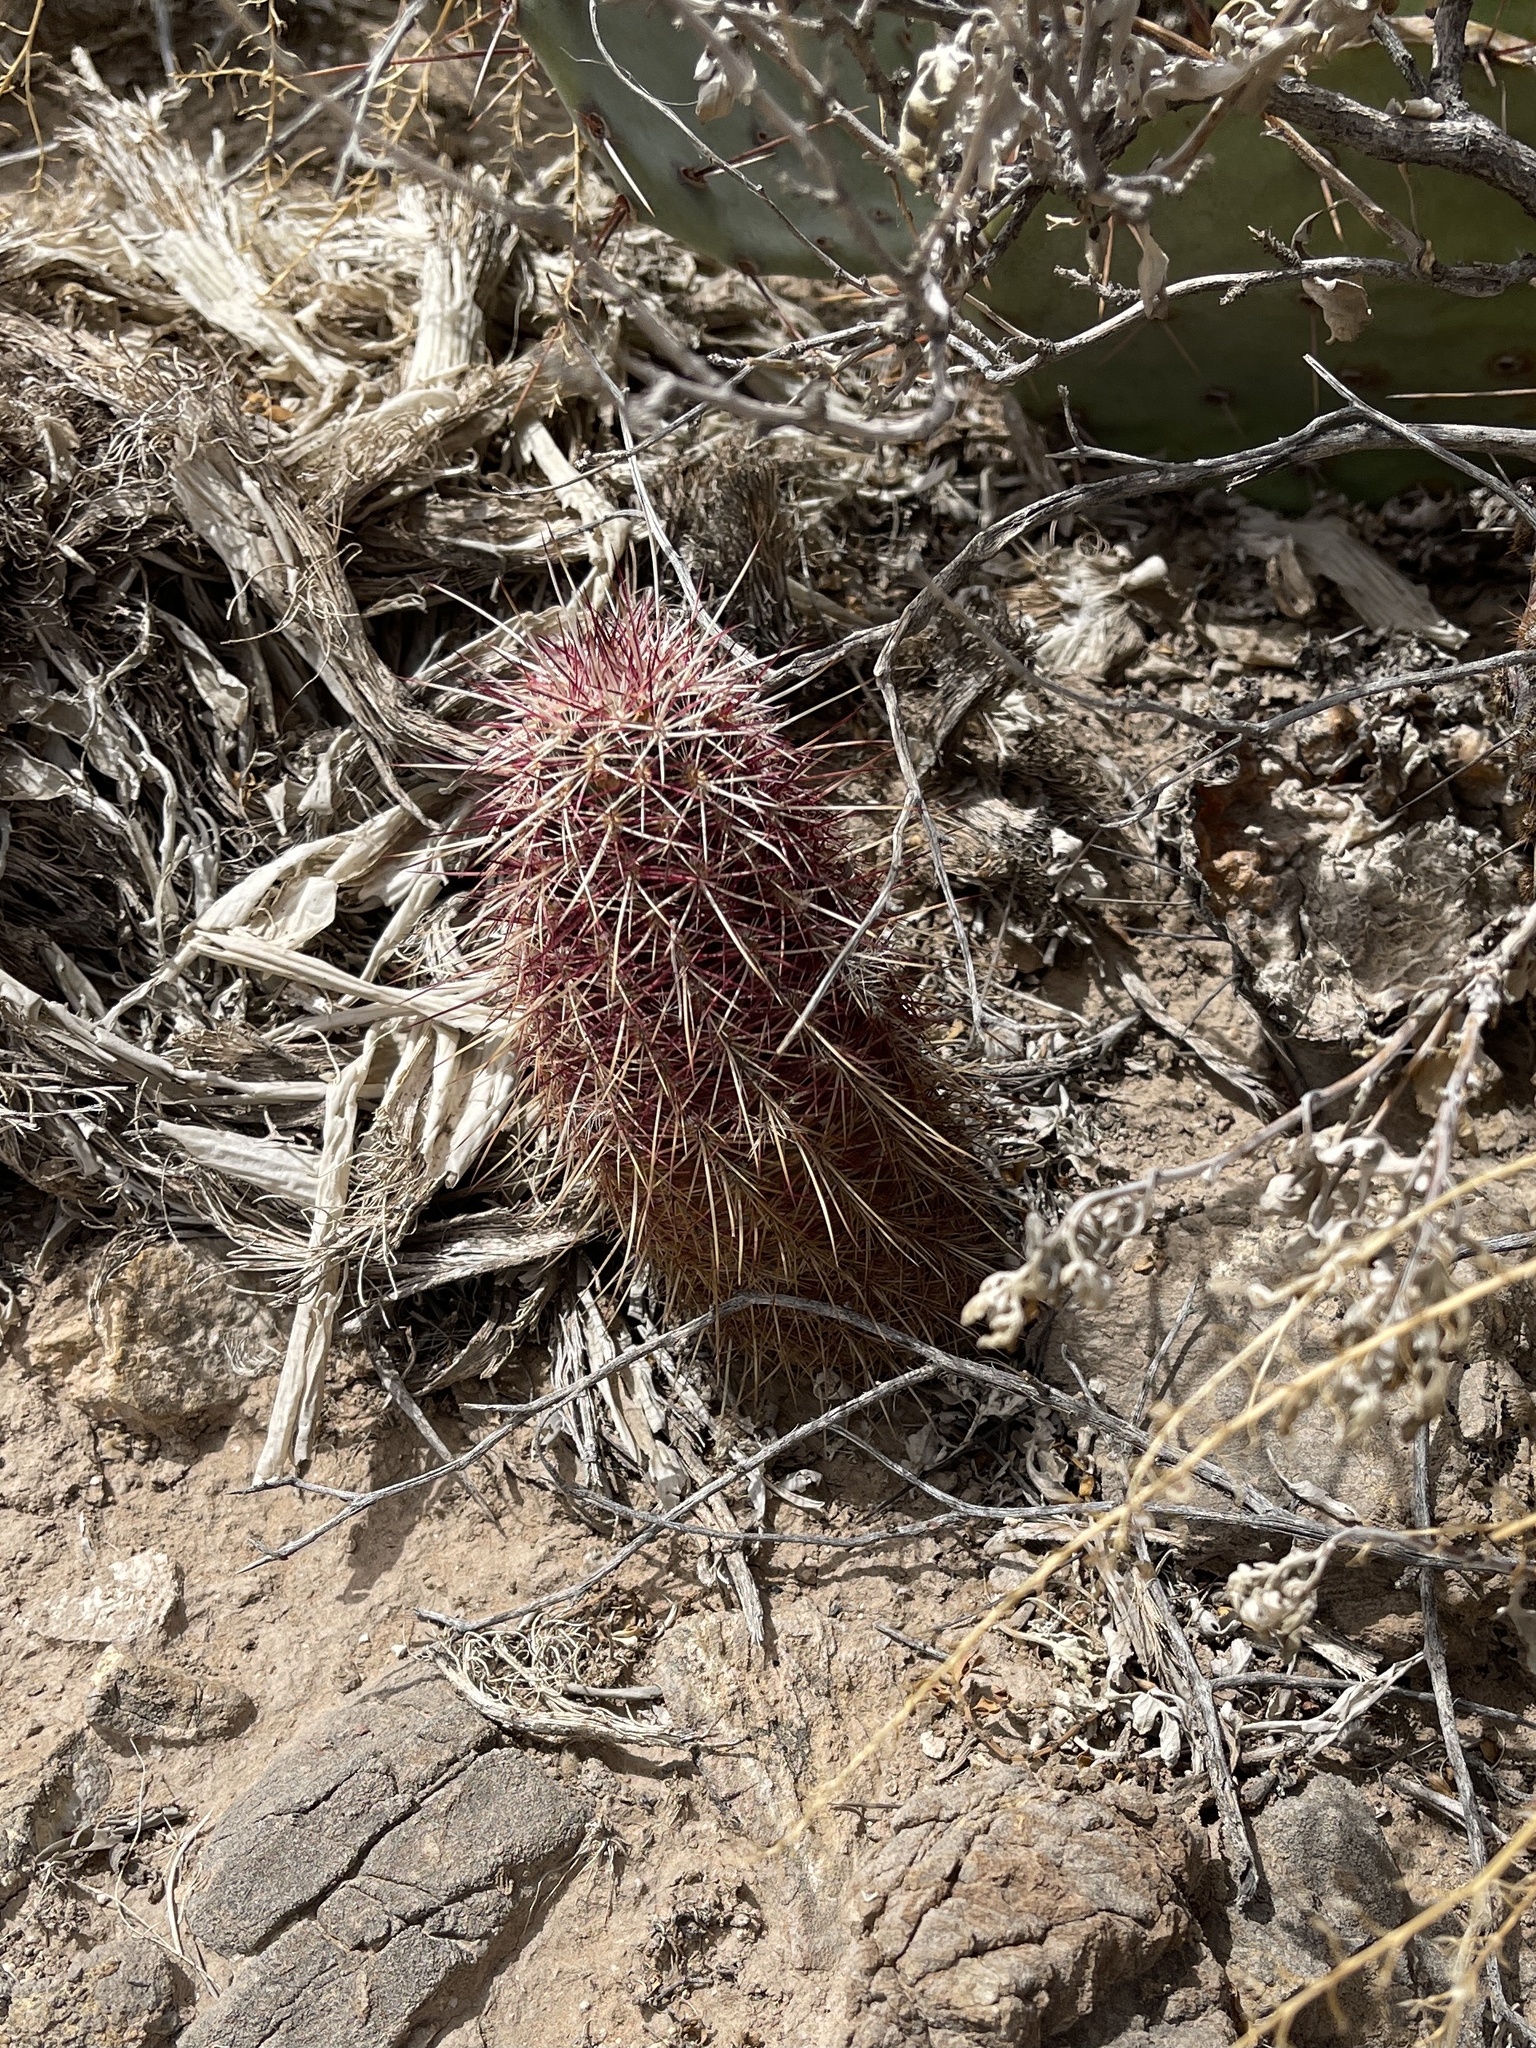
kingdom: Plantae
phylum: Tracheophyta
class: Magnoliopsida
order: Caryophyllales
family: Cactaceae
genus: Echinocereus
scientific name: Echinocereus viridiflorus
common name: Nylon hedgehog cactus
